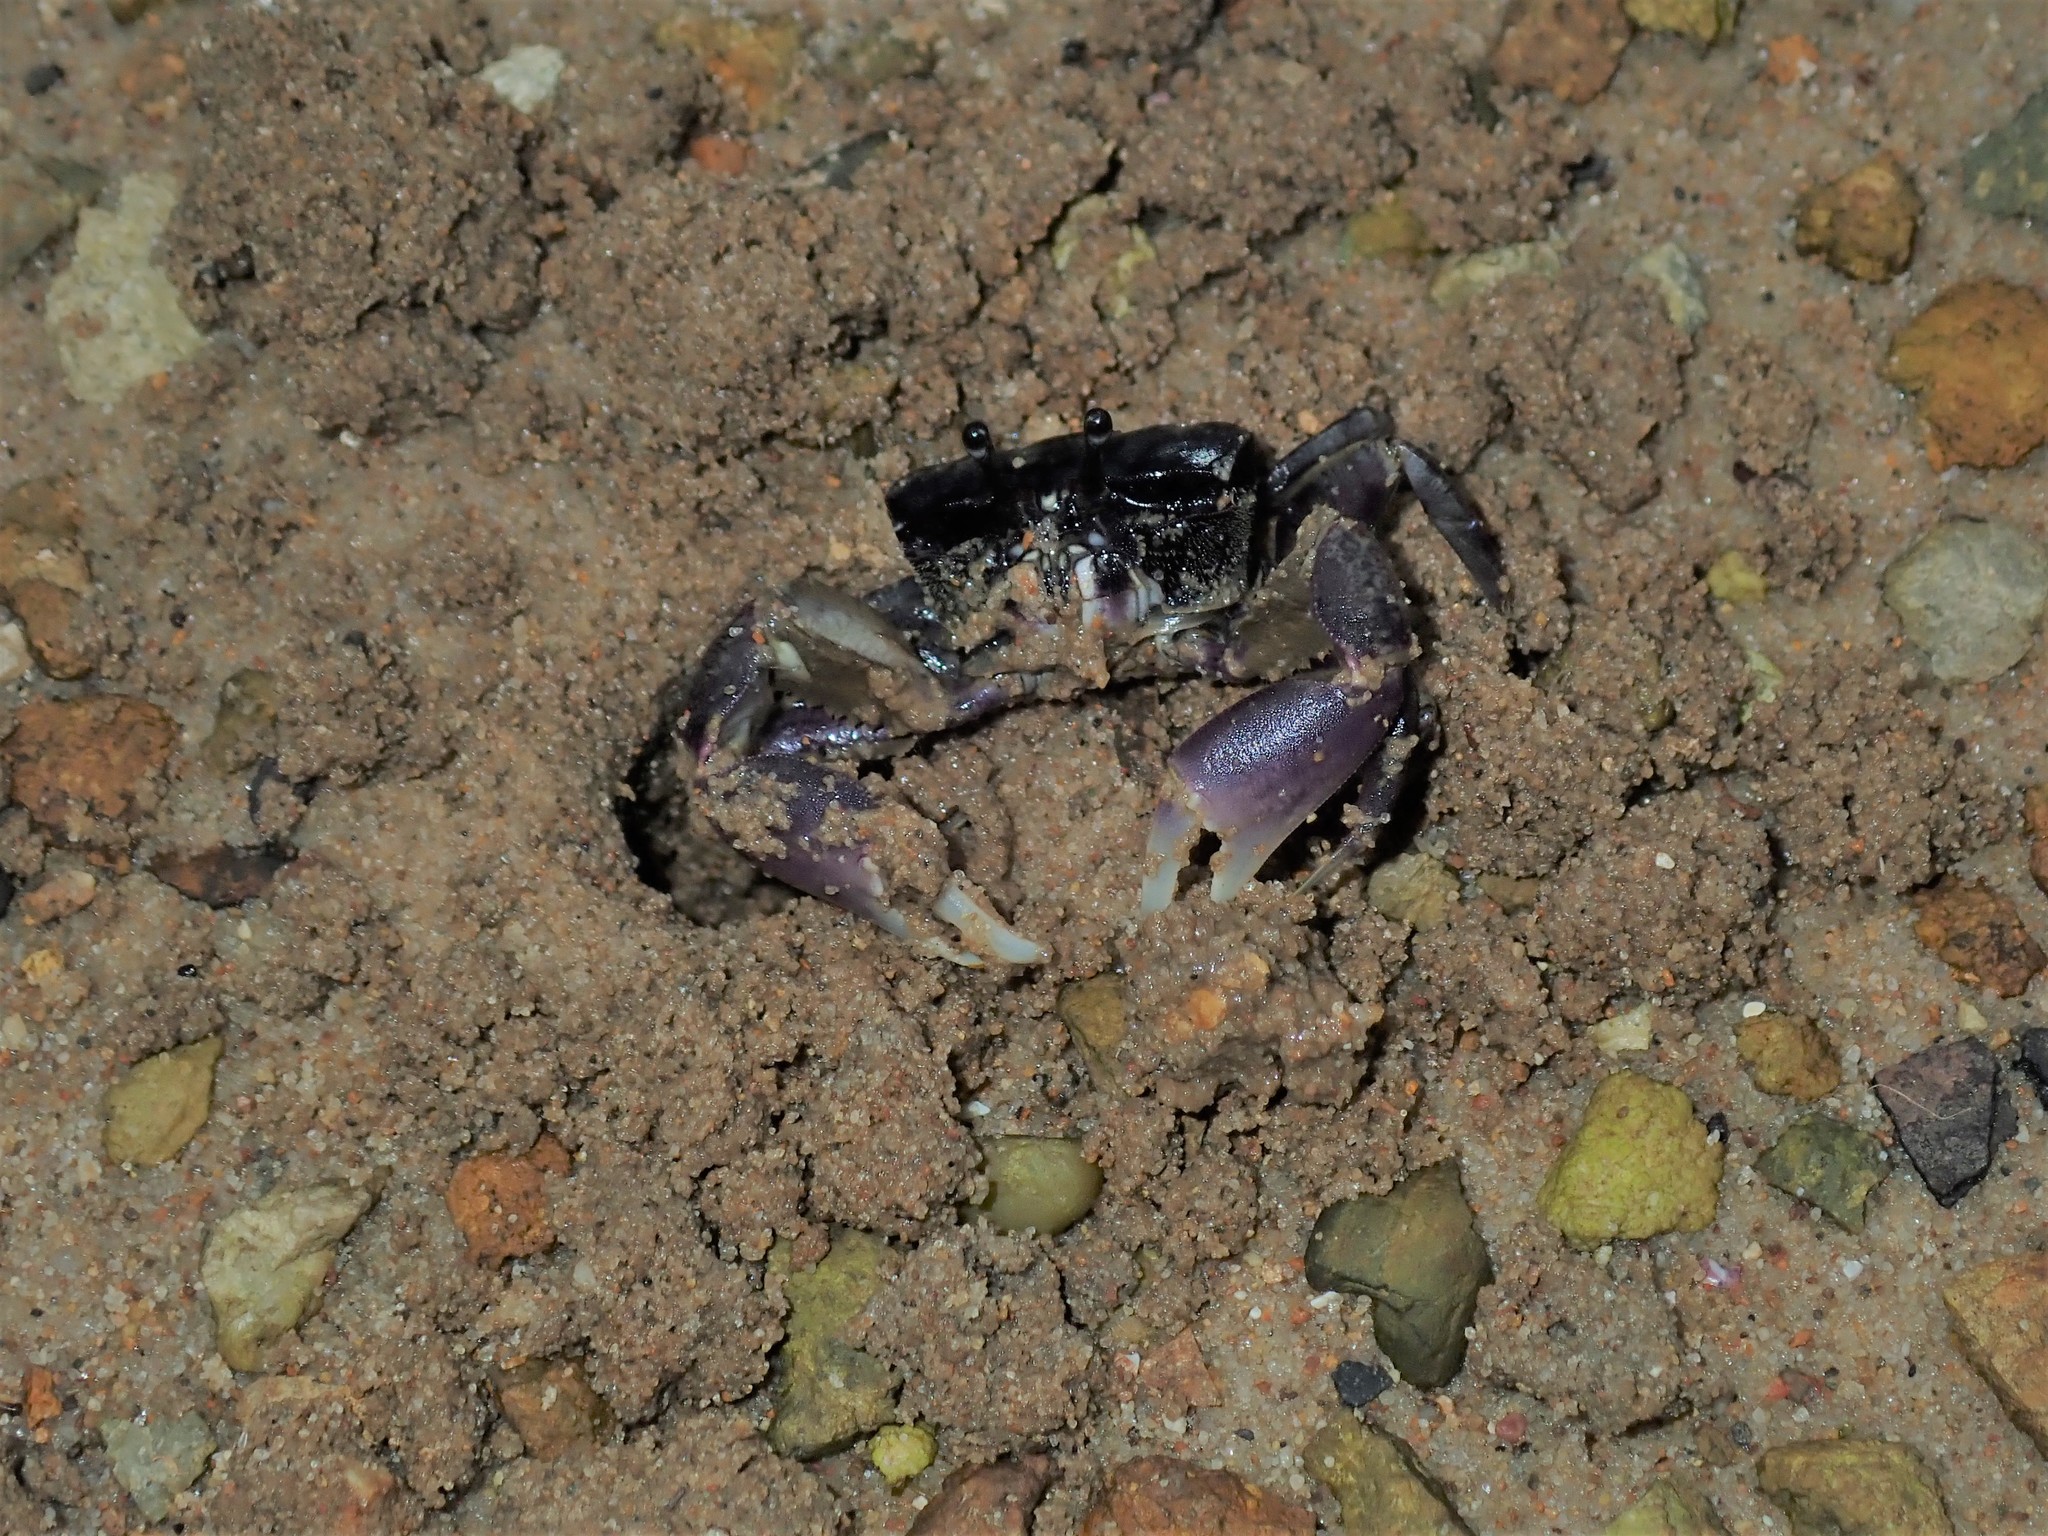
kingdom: Animalia
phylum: Arthropoda
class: Malacostraca
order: Decapoda
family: Heloeciidae
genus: Heloecius
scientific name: Heloecius cordiformis
